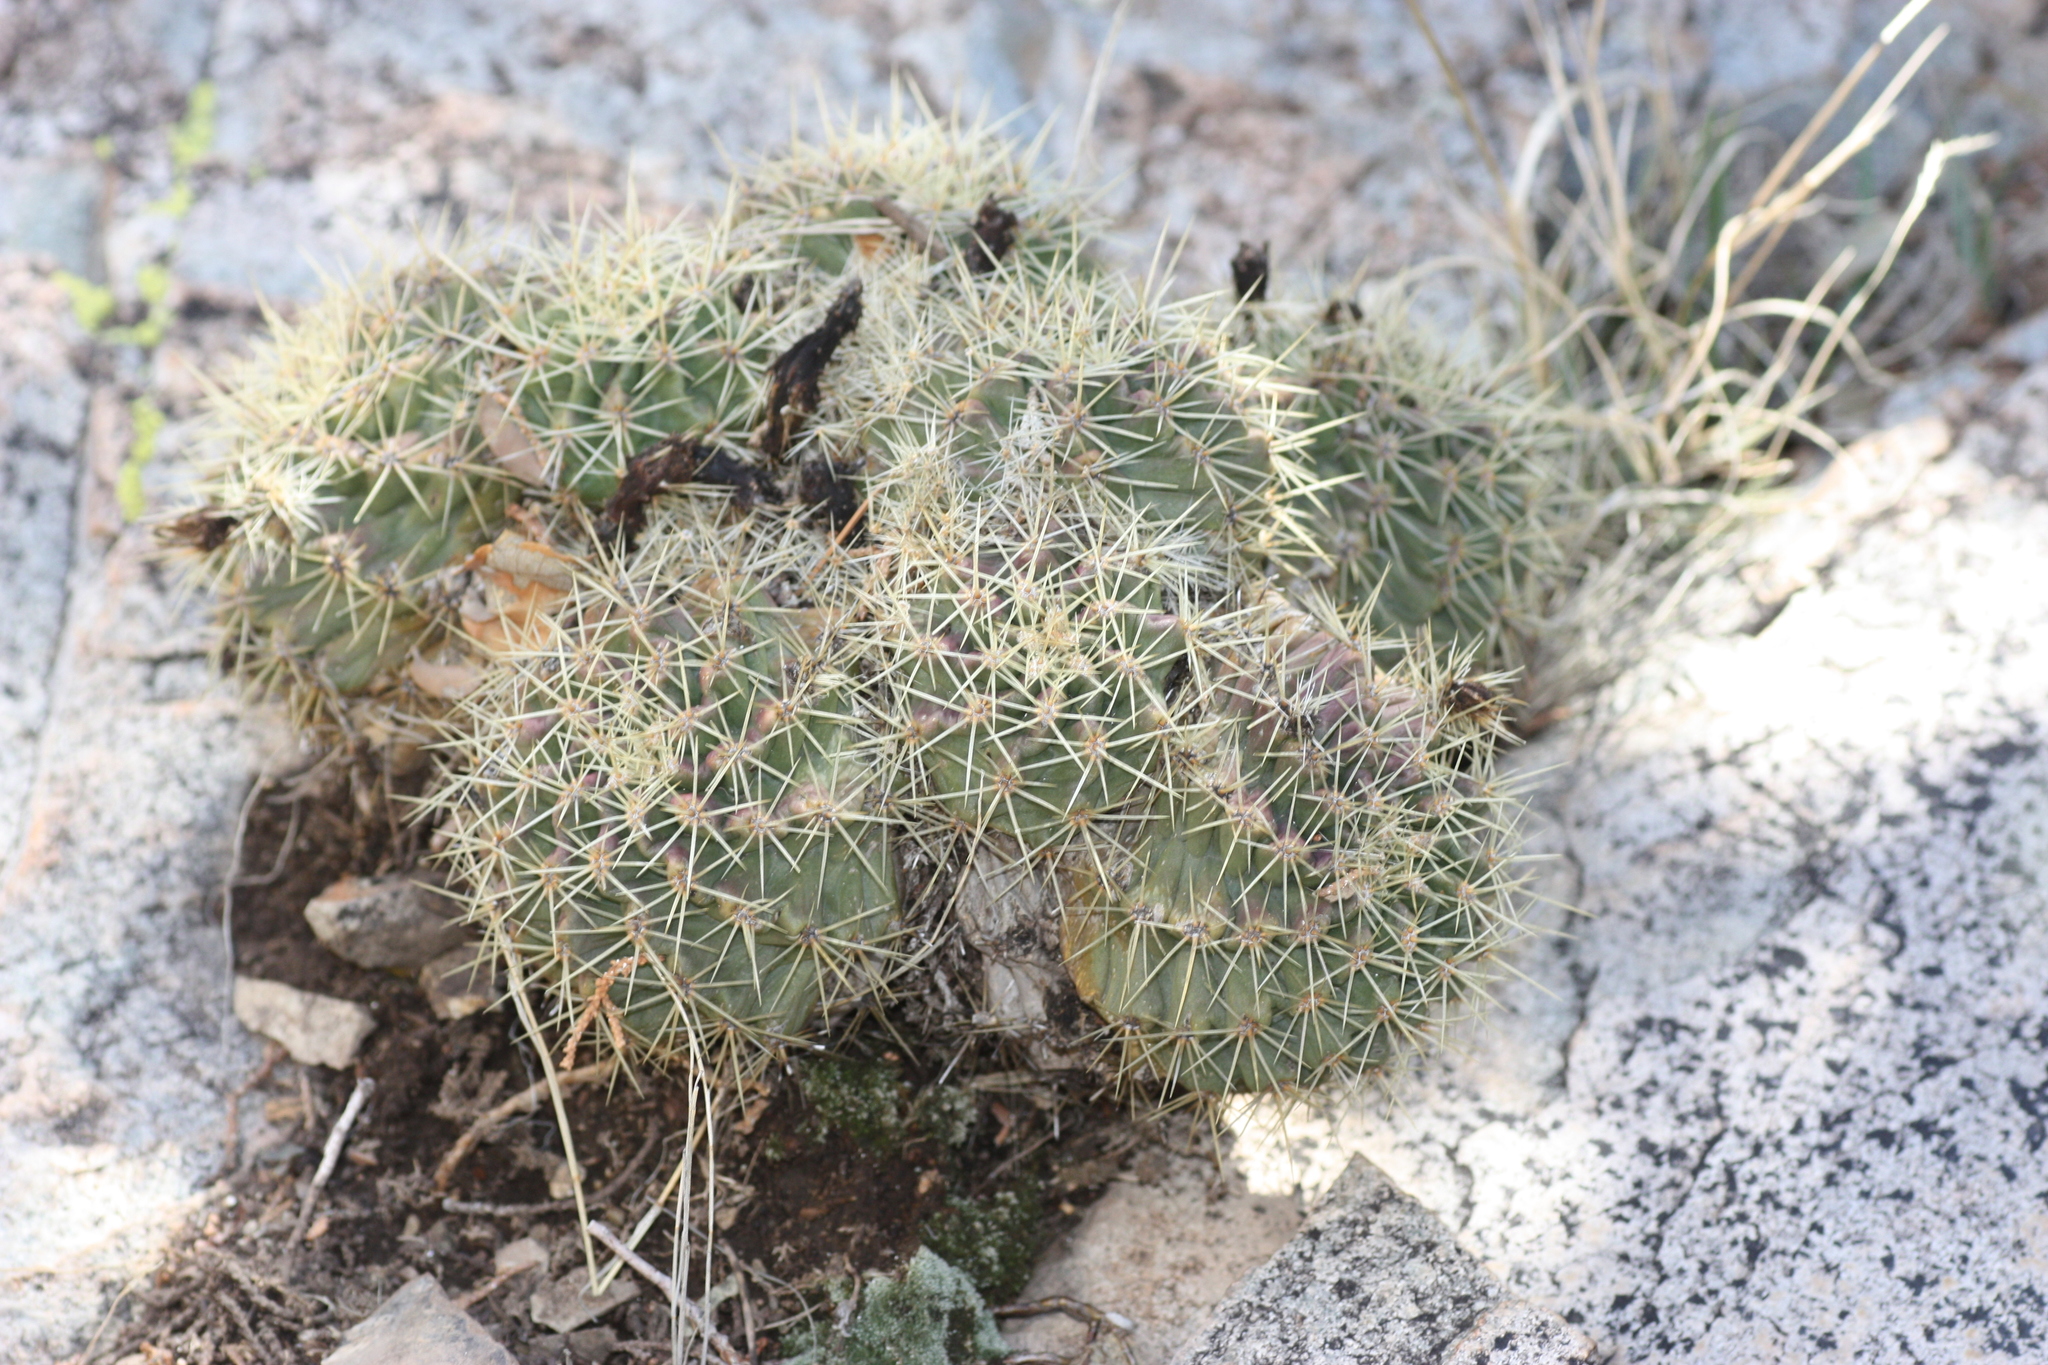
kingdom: Plantae
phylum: Tracheophyta
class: Magnoliopsida
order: Caryophyllales
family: Cactaceae
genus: Echinocereus
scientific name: Echinocereus coccineus
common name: Scarlet hedgehog cactus
